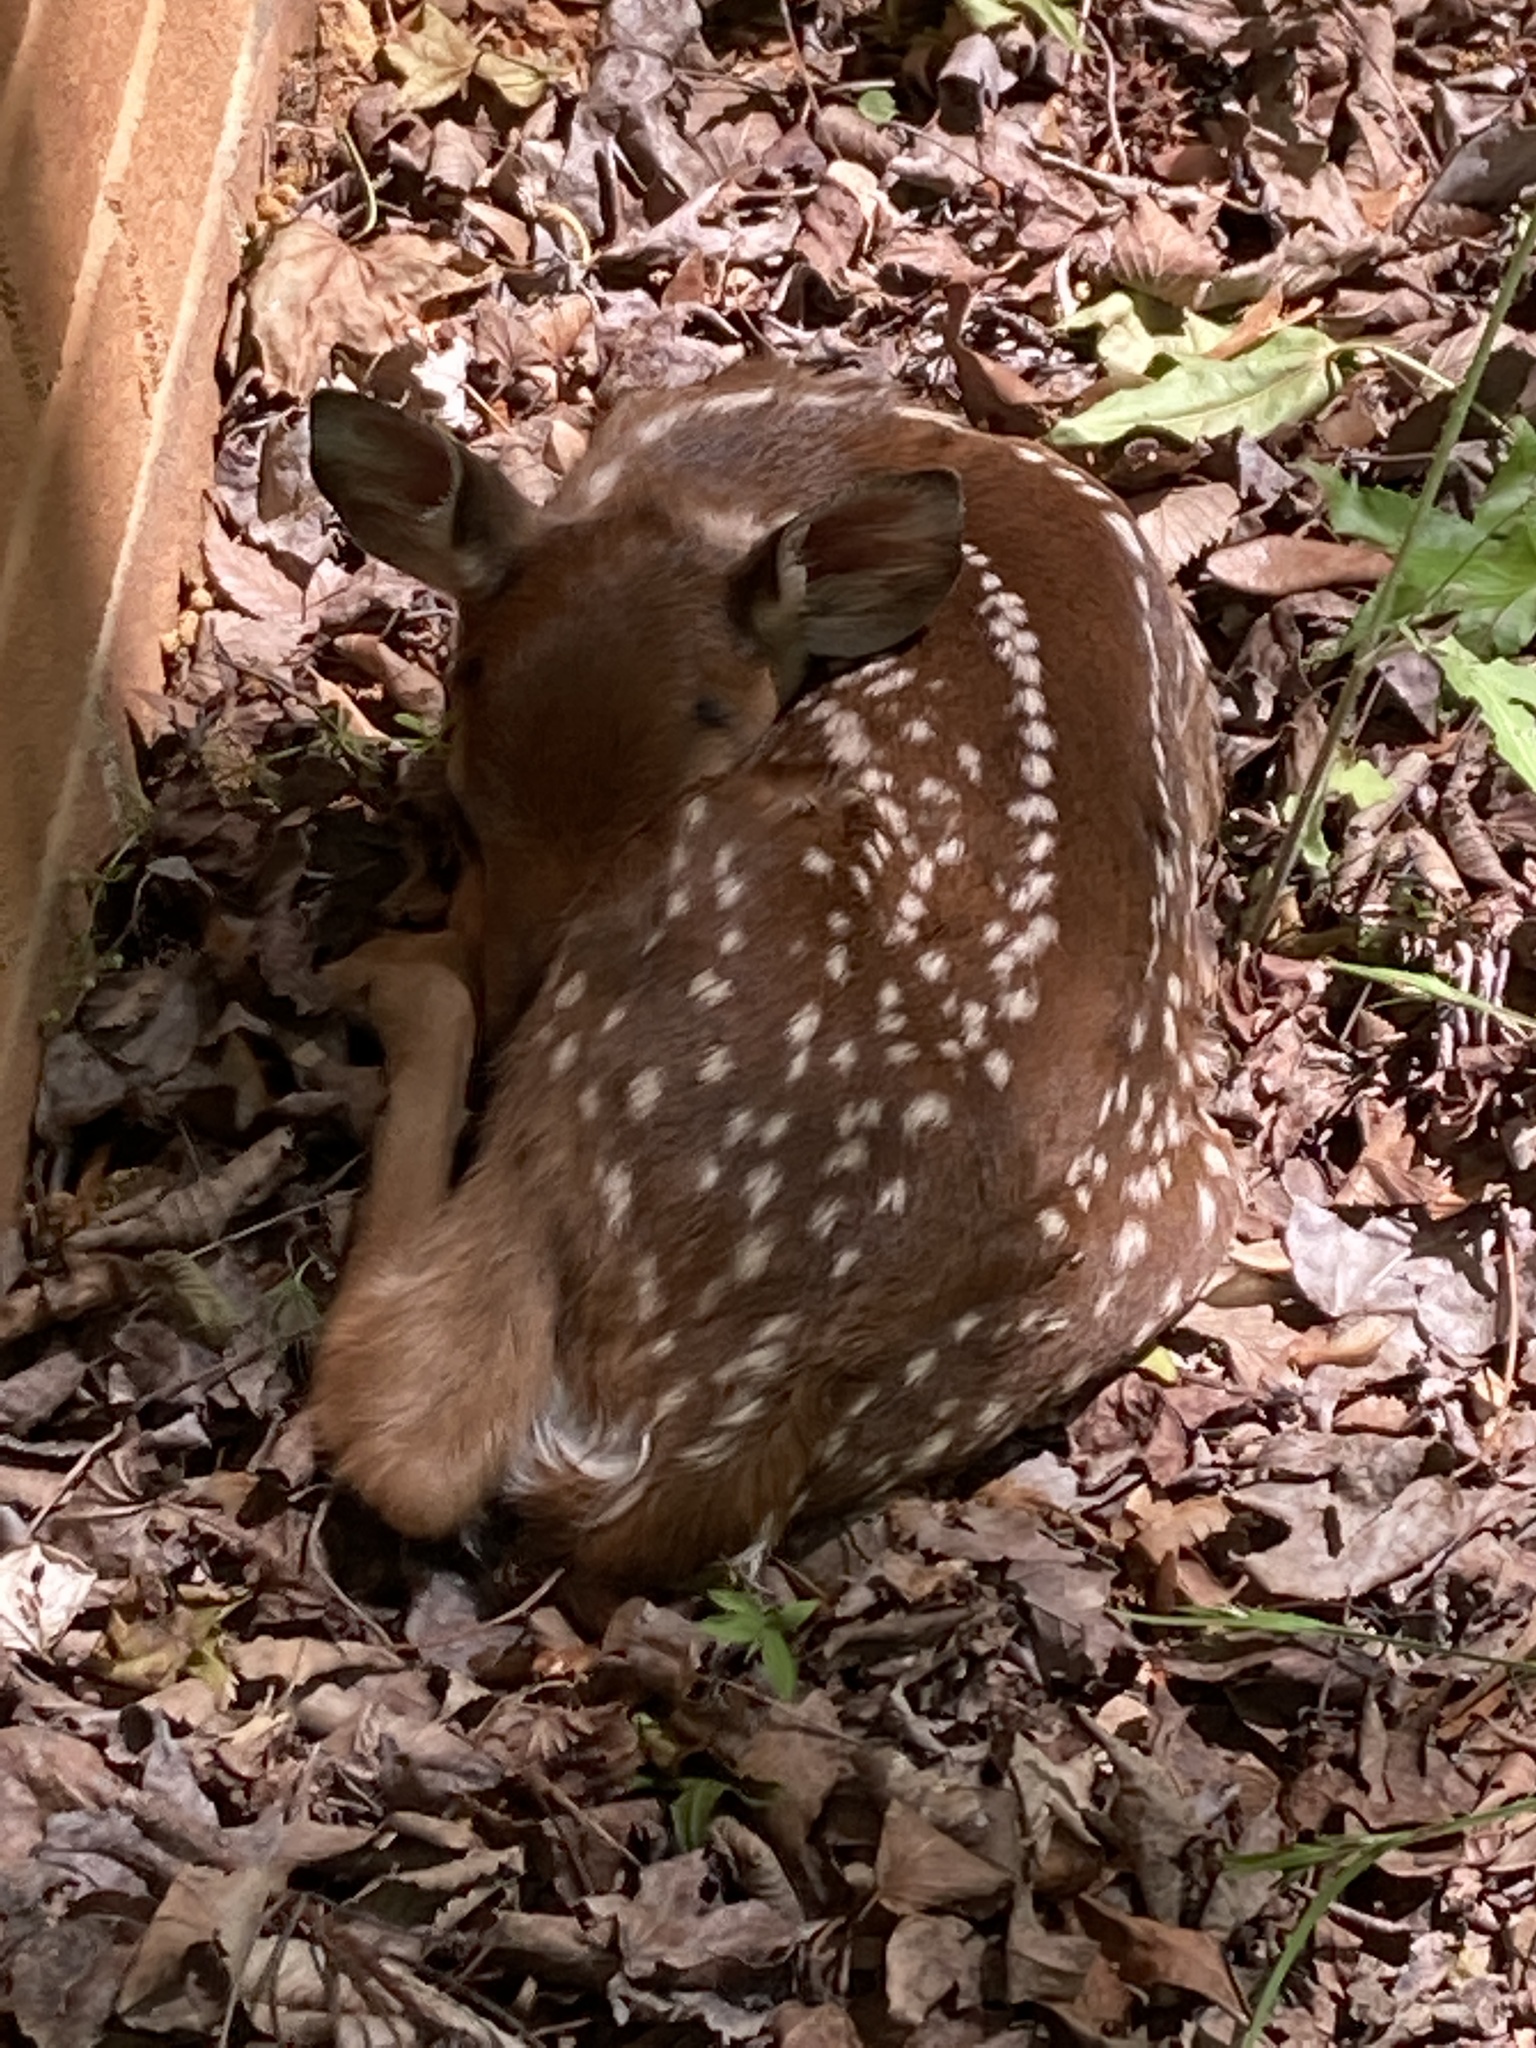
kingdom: Animalia
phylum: Chordata
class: Mammalia
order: Artiodactyla
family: Cervidae
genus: Odocoileus
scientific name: Odocoileus virginianus
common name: White-tailed deer
